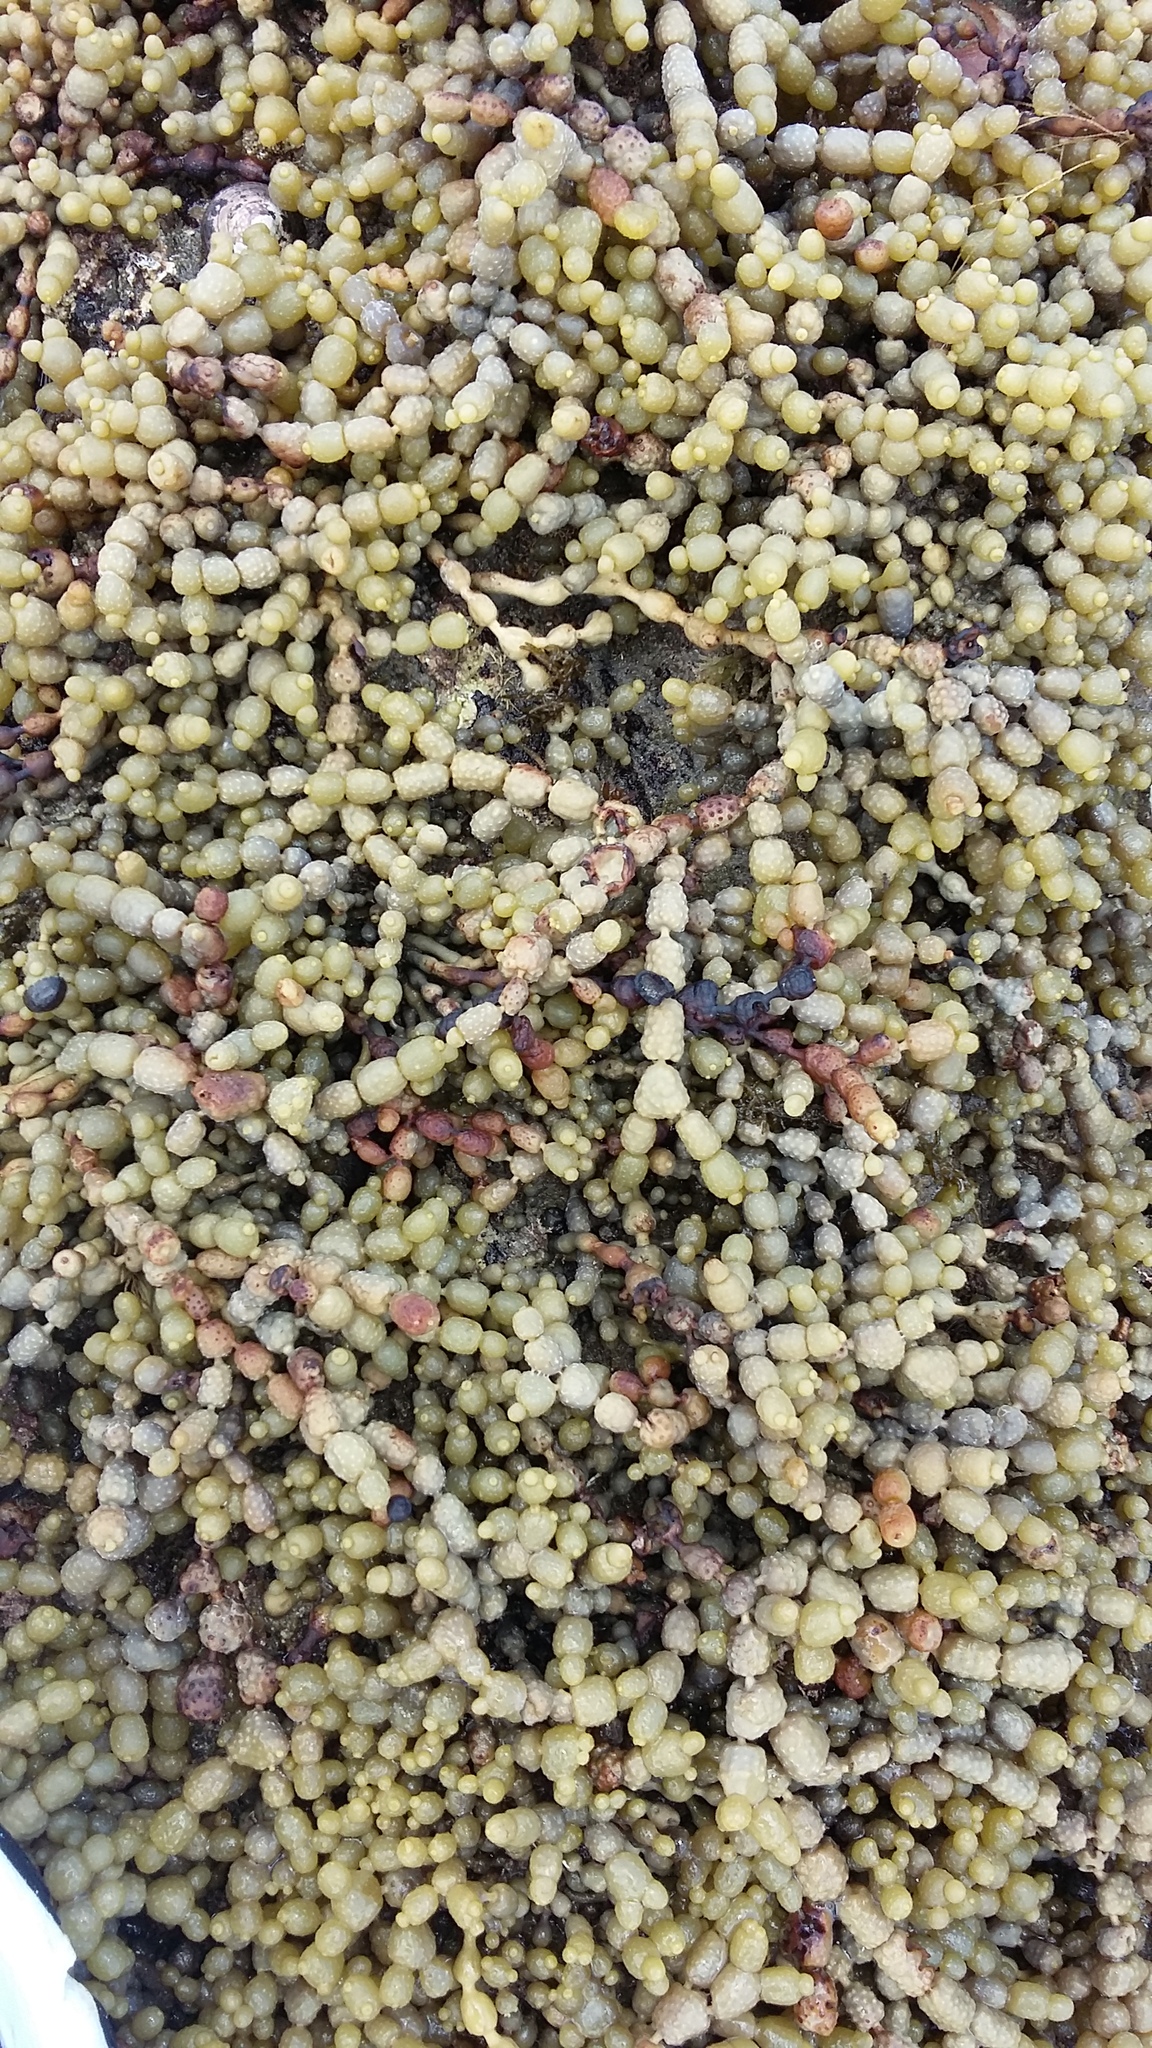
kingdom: Chromista
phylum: Ochrophyta
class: Phaeophyceae
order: Fucales
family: Hormosiraceae
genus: Hormosira
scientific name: Hormosira banksii
